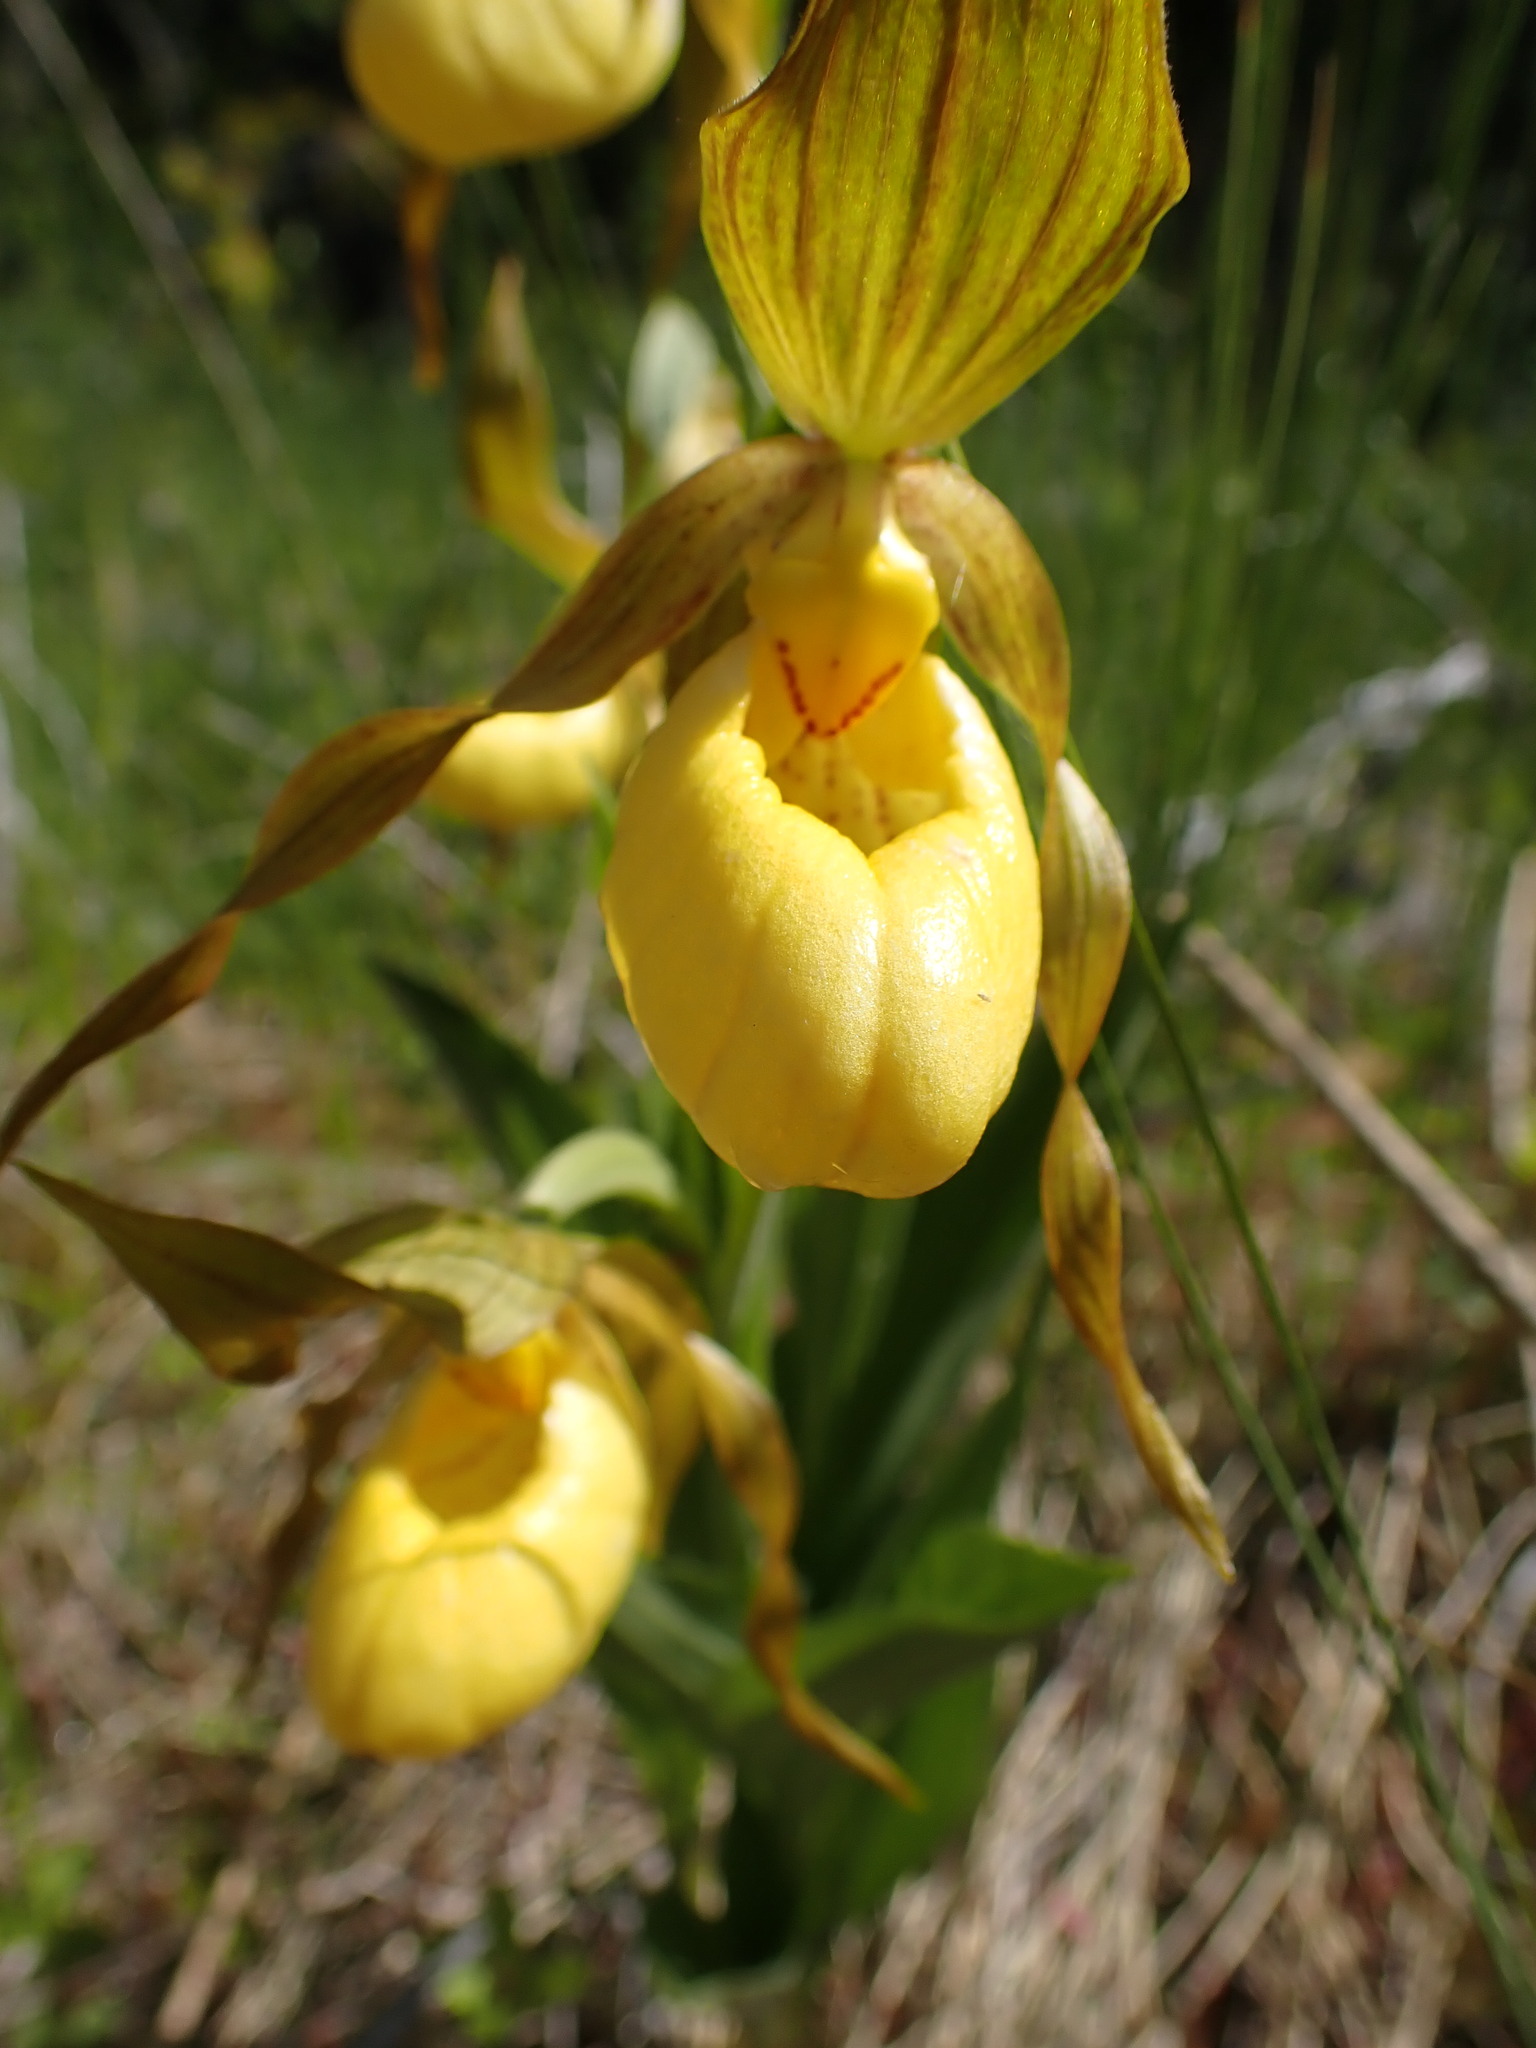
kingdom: Plantae
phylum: Tracheophyta
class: Liliopsida
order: Asparagales
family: Orchidaceae
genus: Cypripedium
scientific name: Cypripedium parviflorum
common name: American yellow lady's-slipper
